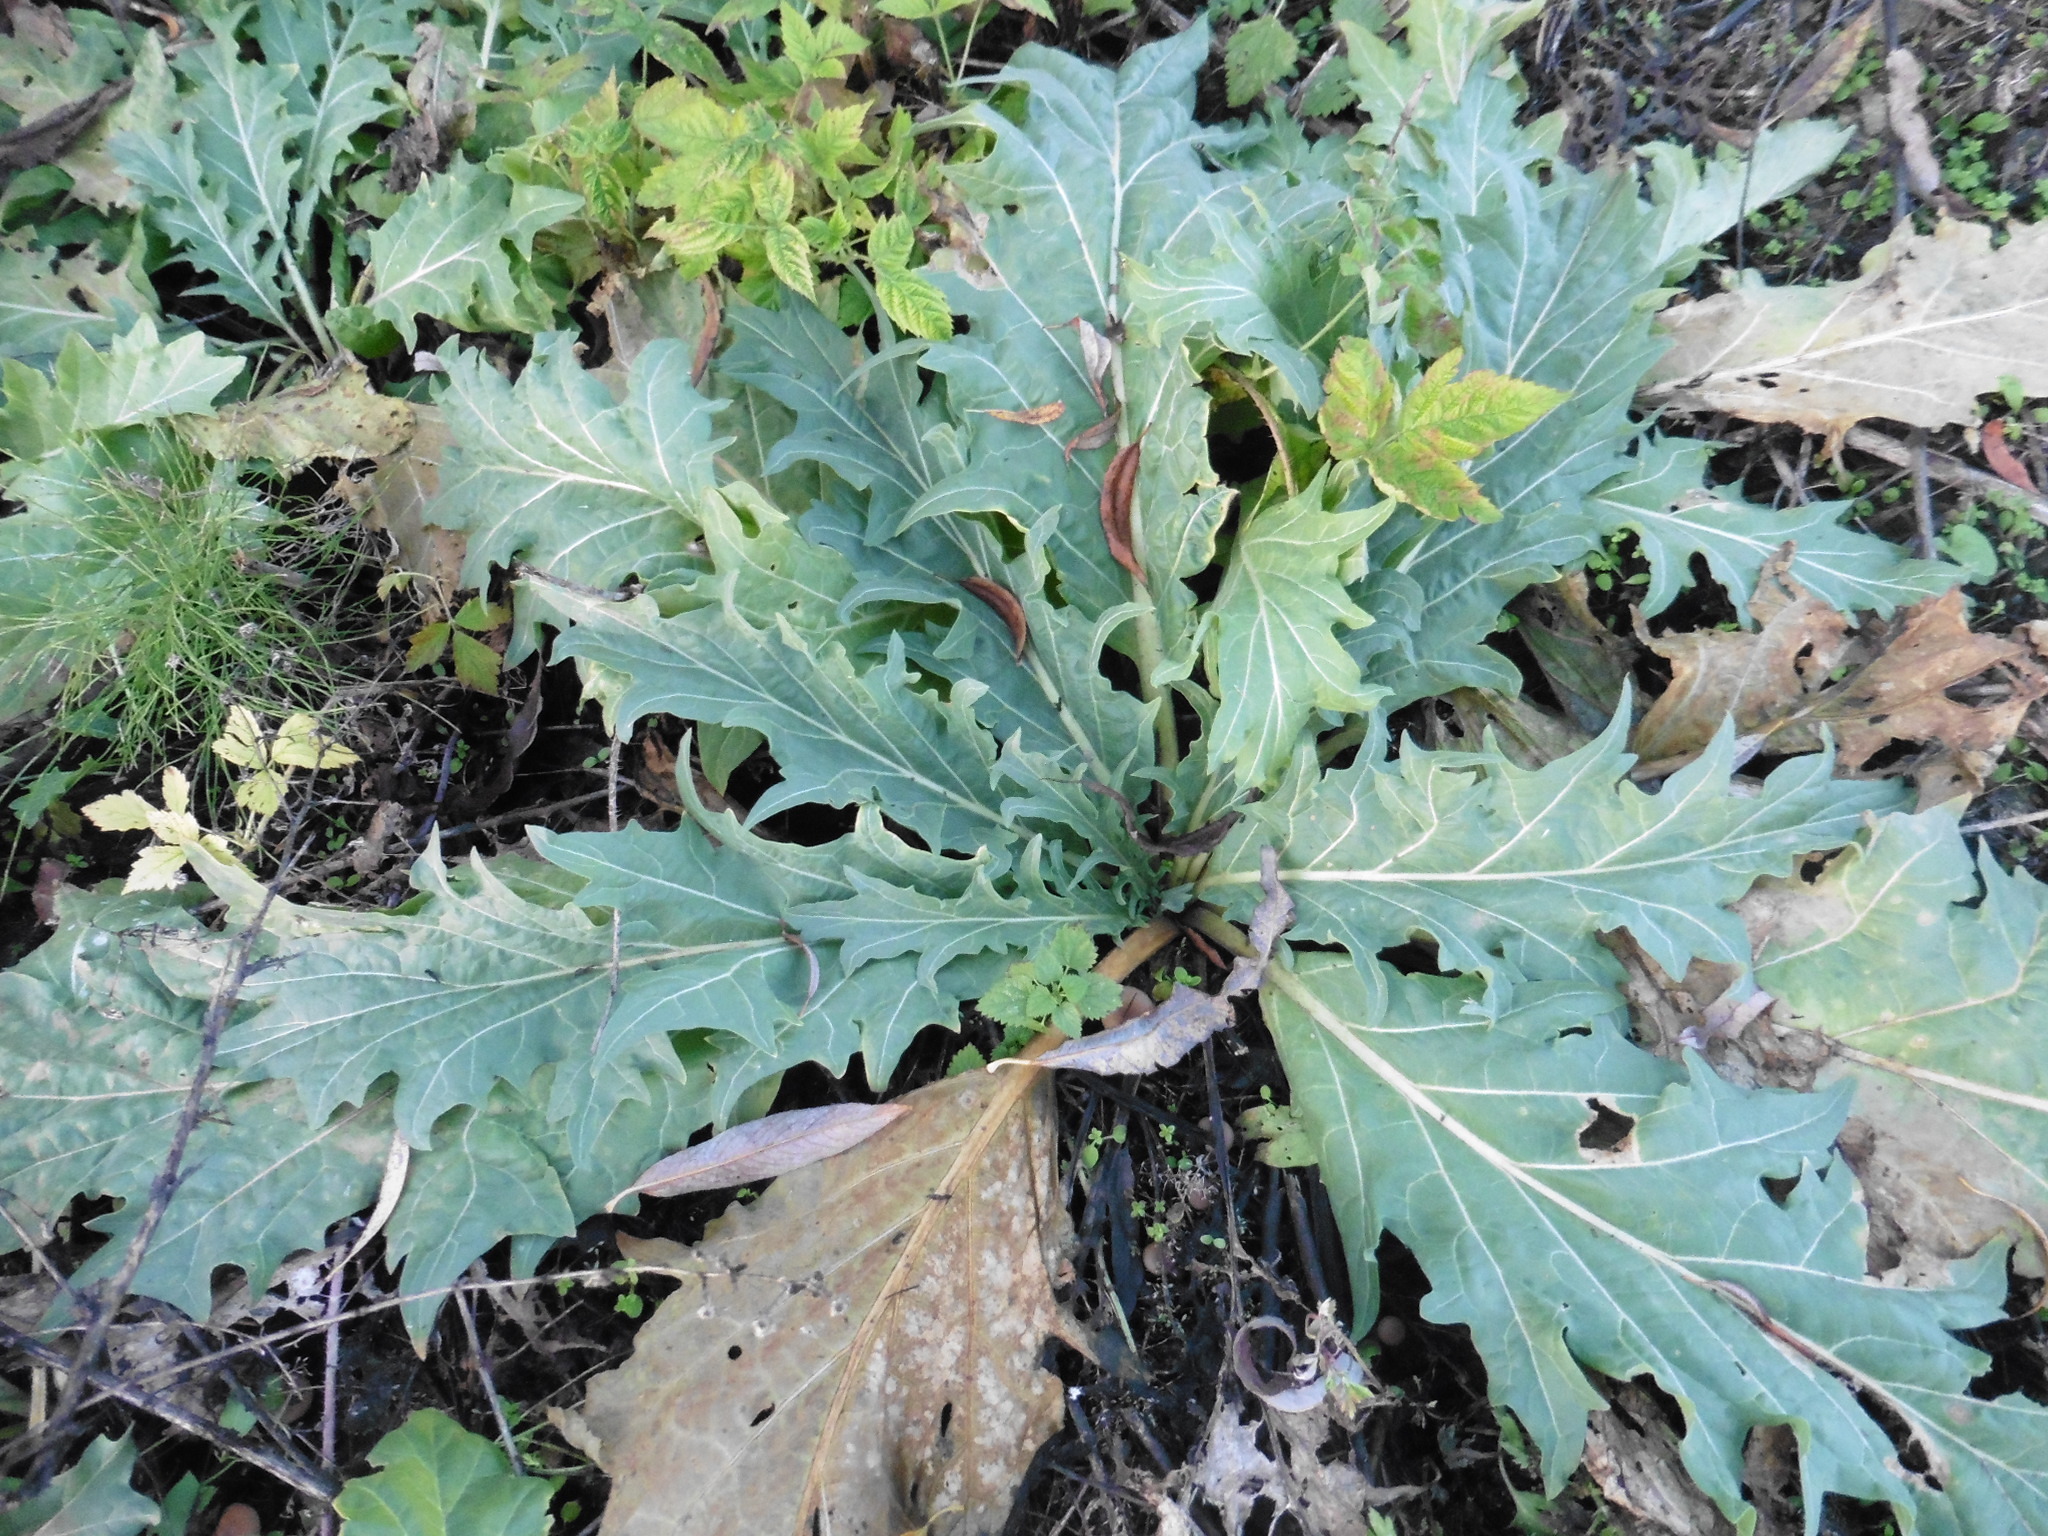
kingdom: Plantae
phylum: Tracheophyta
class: Magnoliopsida
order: Solanales
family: Solanaceae
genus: Hyoscyamus
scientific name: Hyoscyamus niger
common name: Henbane
